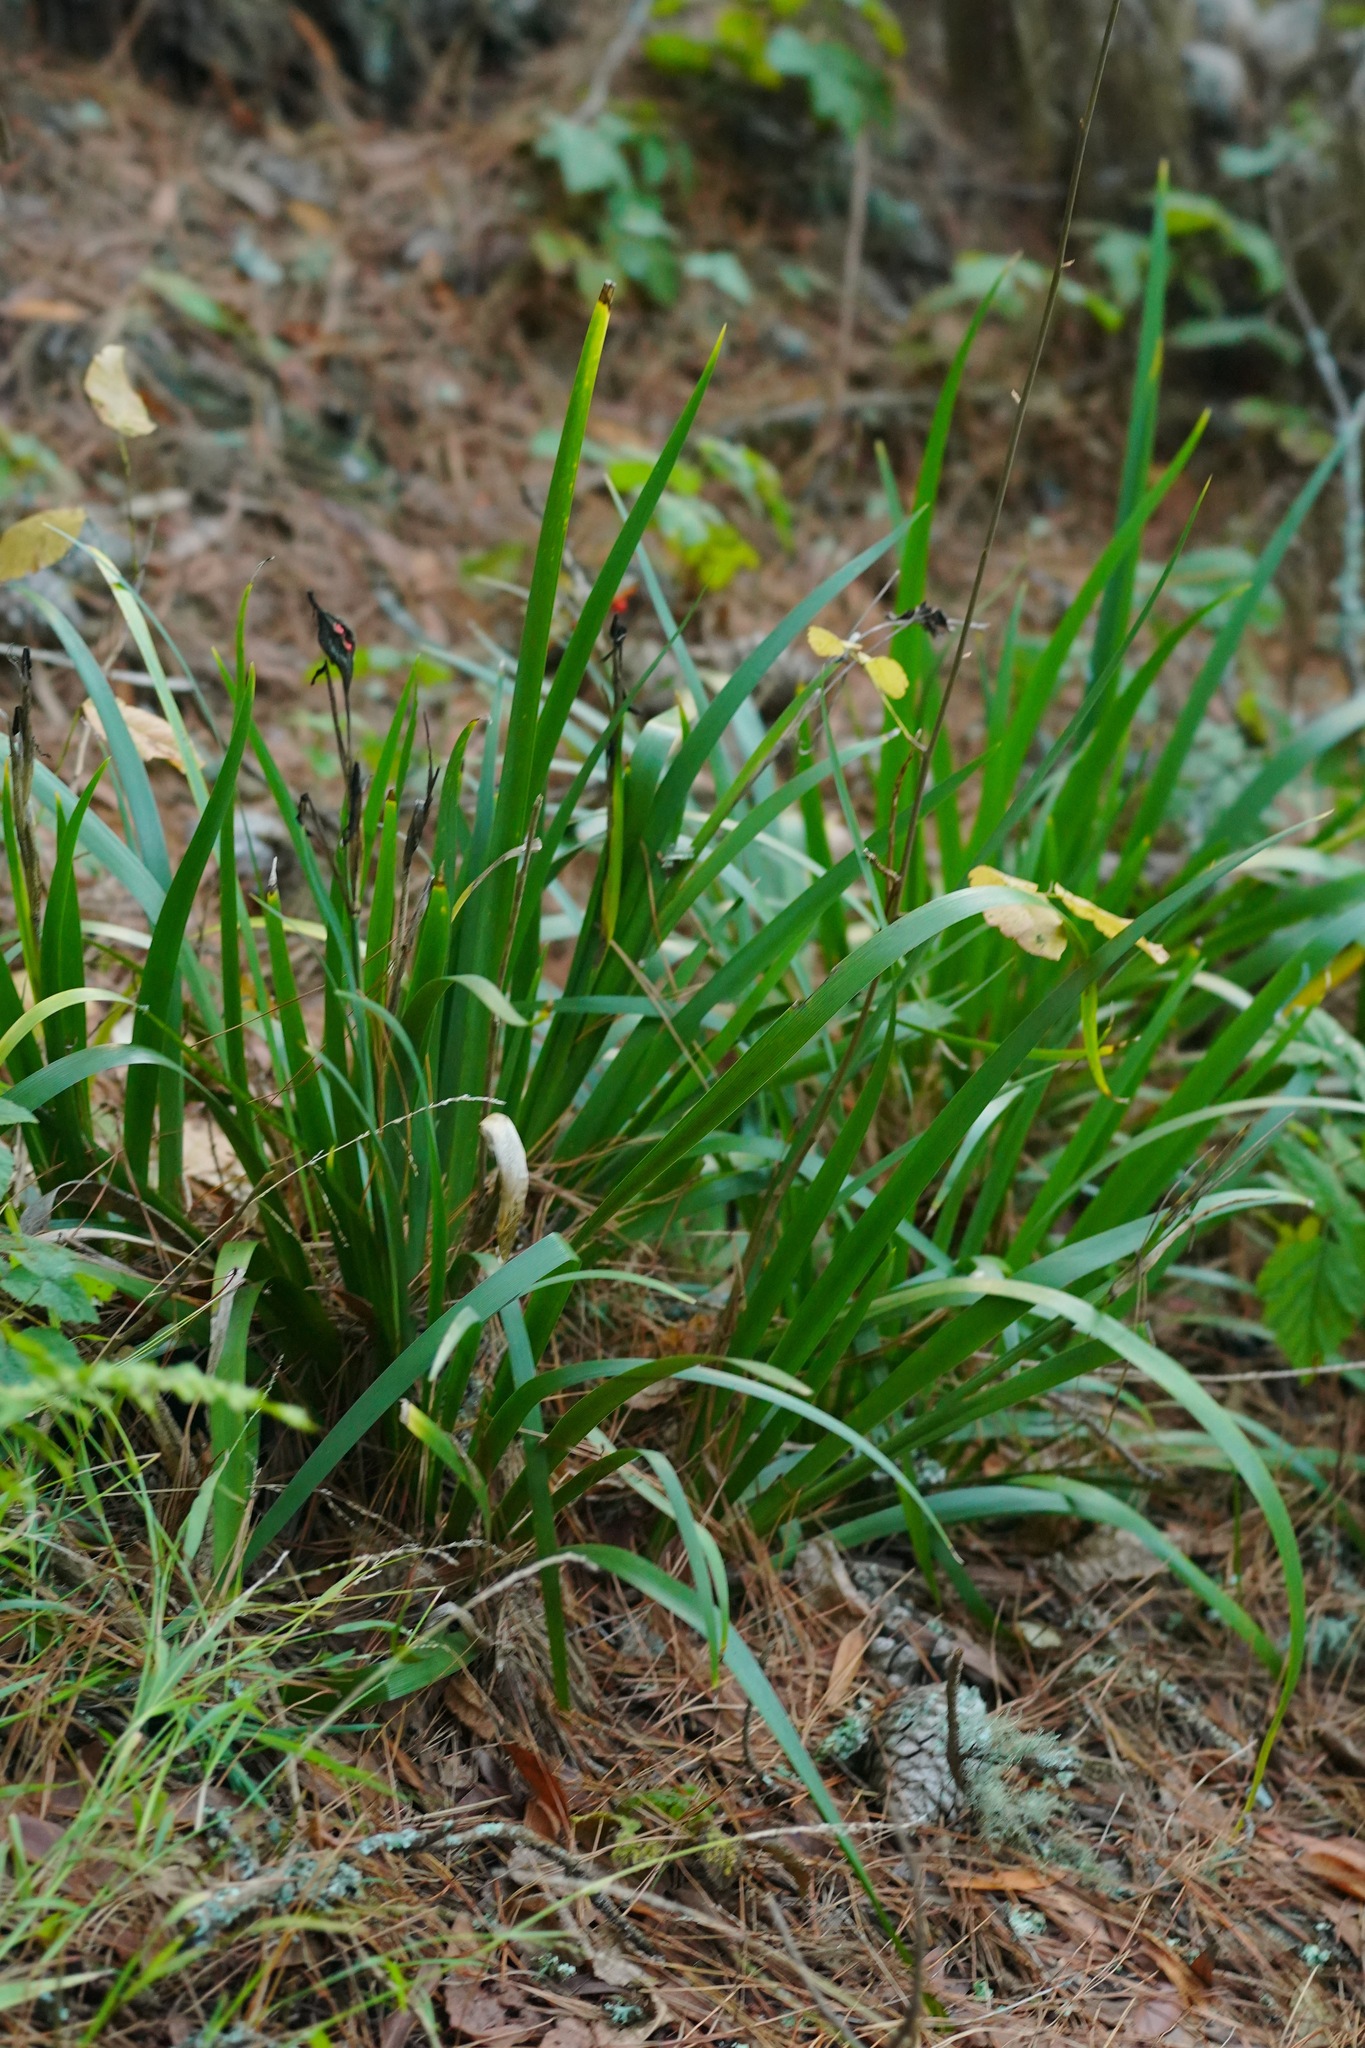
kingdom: Plantae
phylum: Tracheophyta
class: Liliopsida
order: Asparagales
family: Iridaceae
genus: Iris
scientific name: Iris foetidissima
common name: Stinking iris
